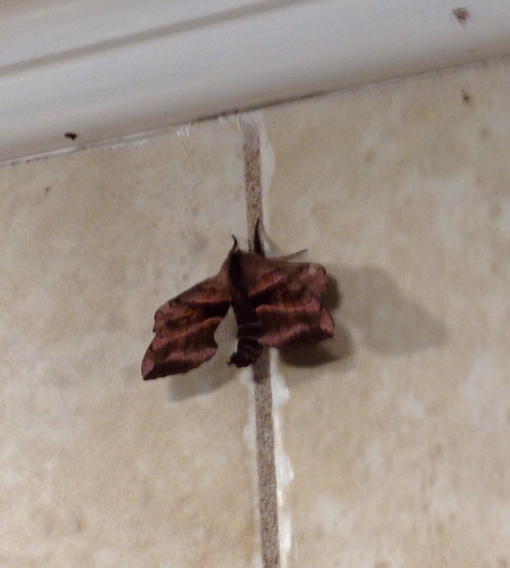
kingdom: Animalia
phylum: Arthropoda
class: Insecta
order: Lepidoptera
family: Sphingidae
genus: Amorpha
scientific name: Amorpha juglandis
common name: Walnut sphinx
